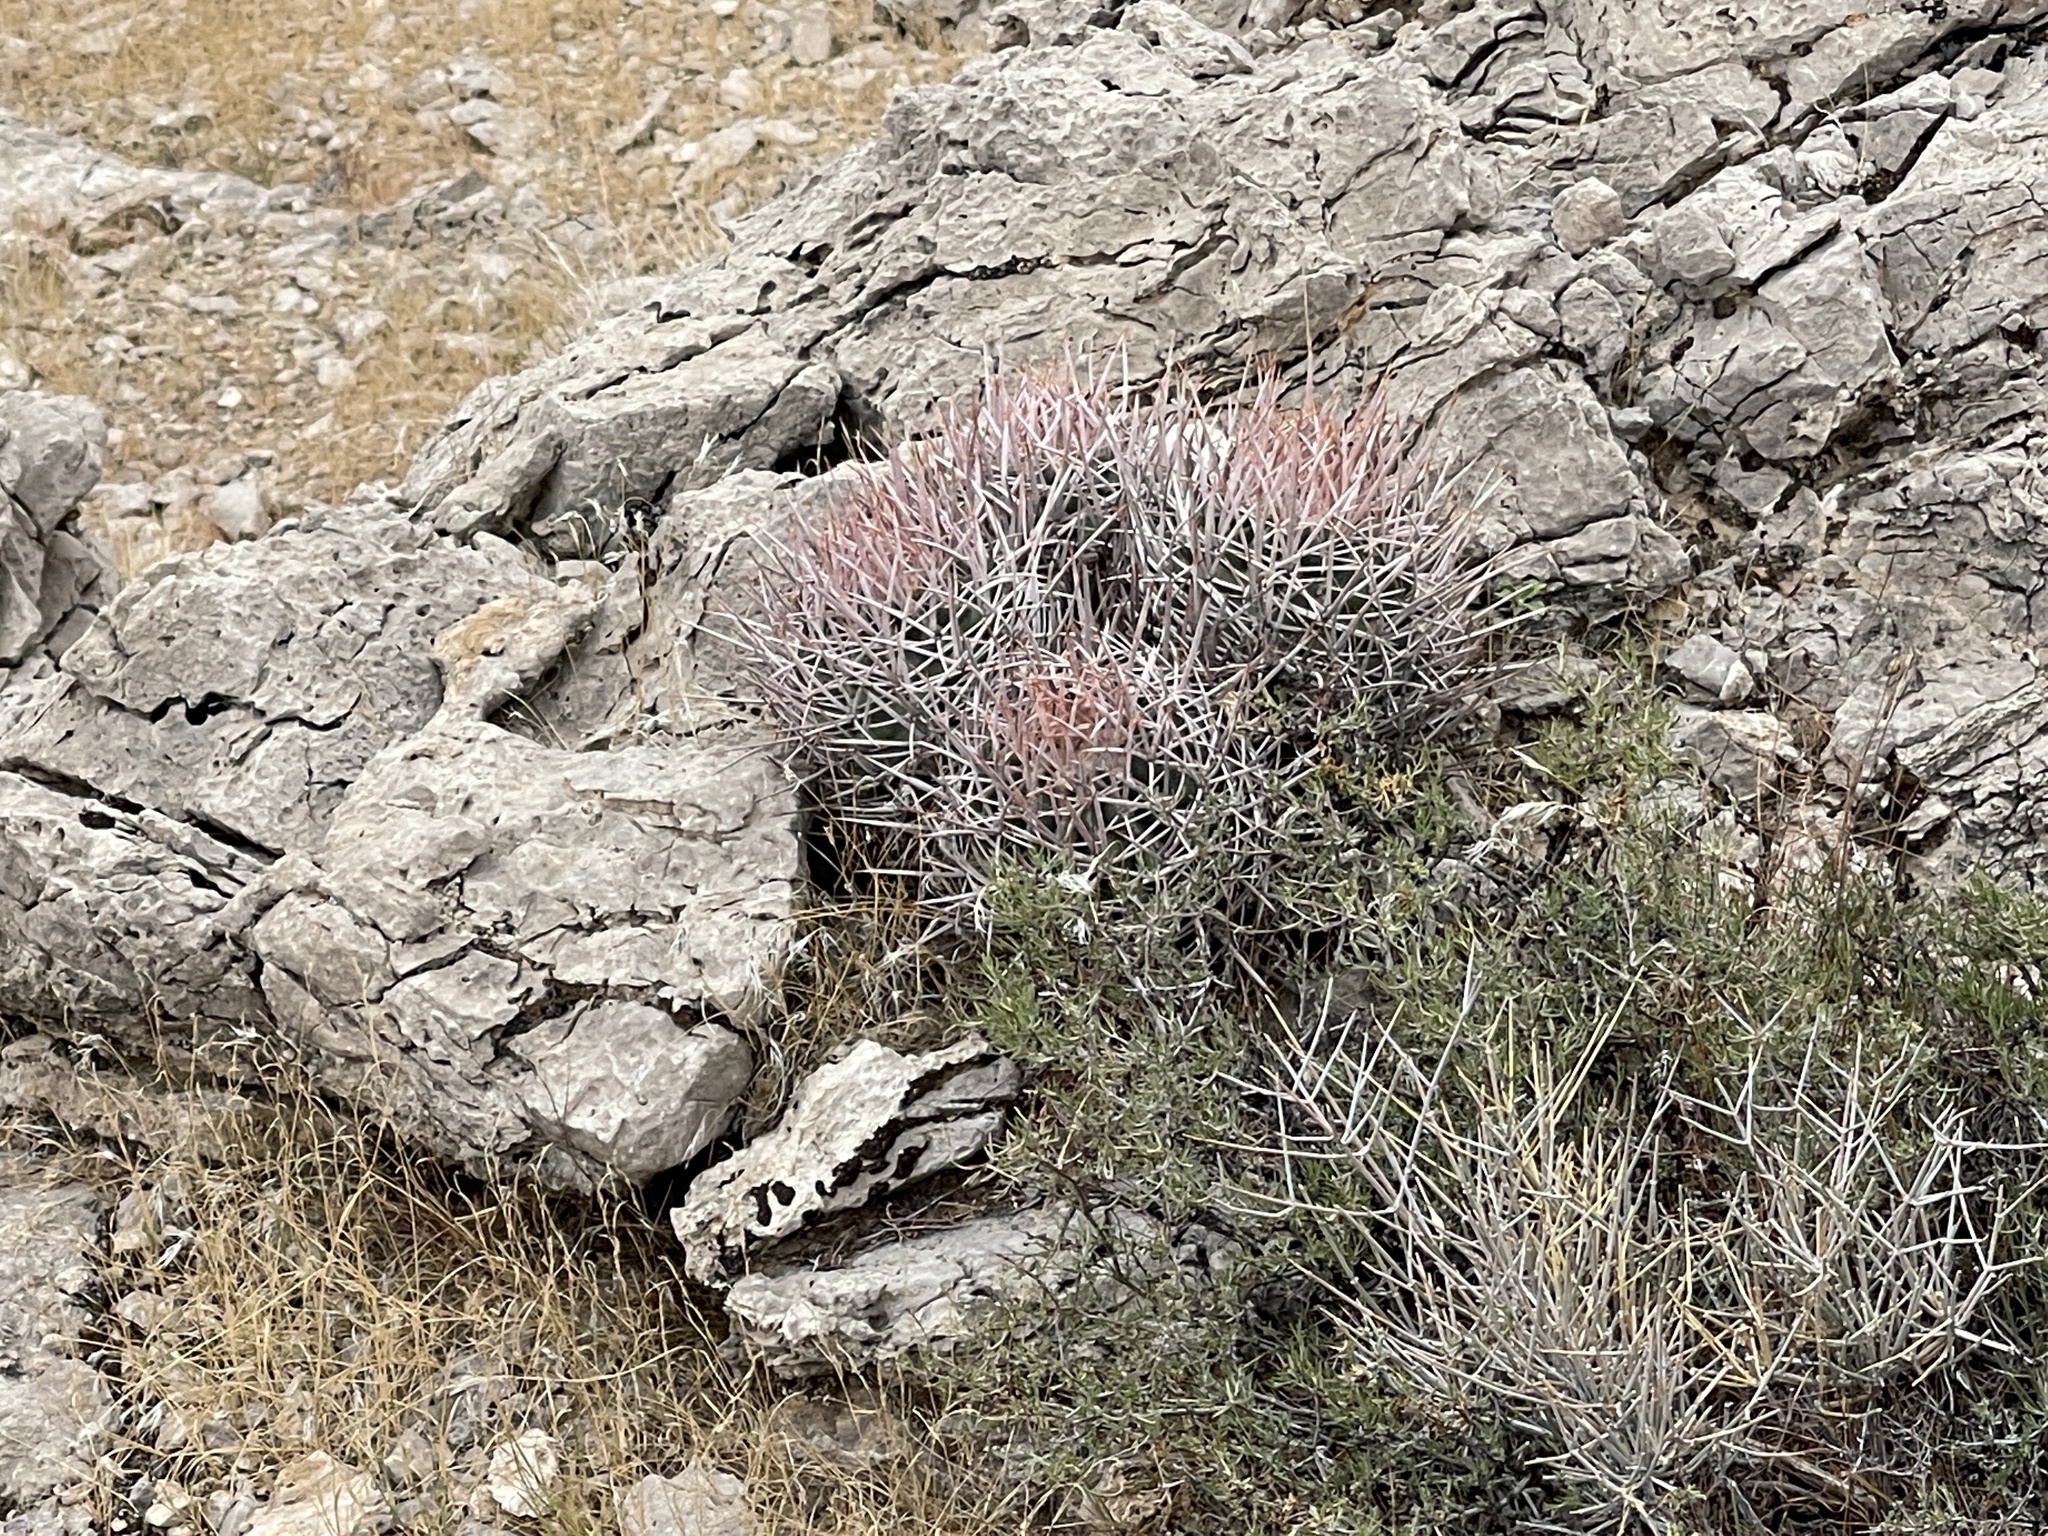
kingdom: Plantae
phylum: Tracheophyta
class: Magnoliopsida
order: Caryophyllales
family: Cactaceae
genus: Echinocactus
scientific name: Echinocactus polycephalus
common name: Cottontop cactus
